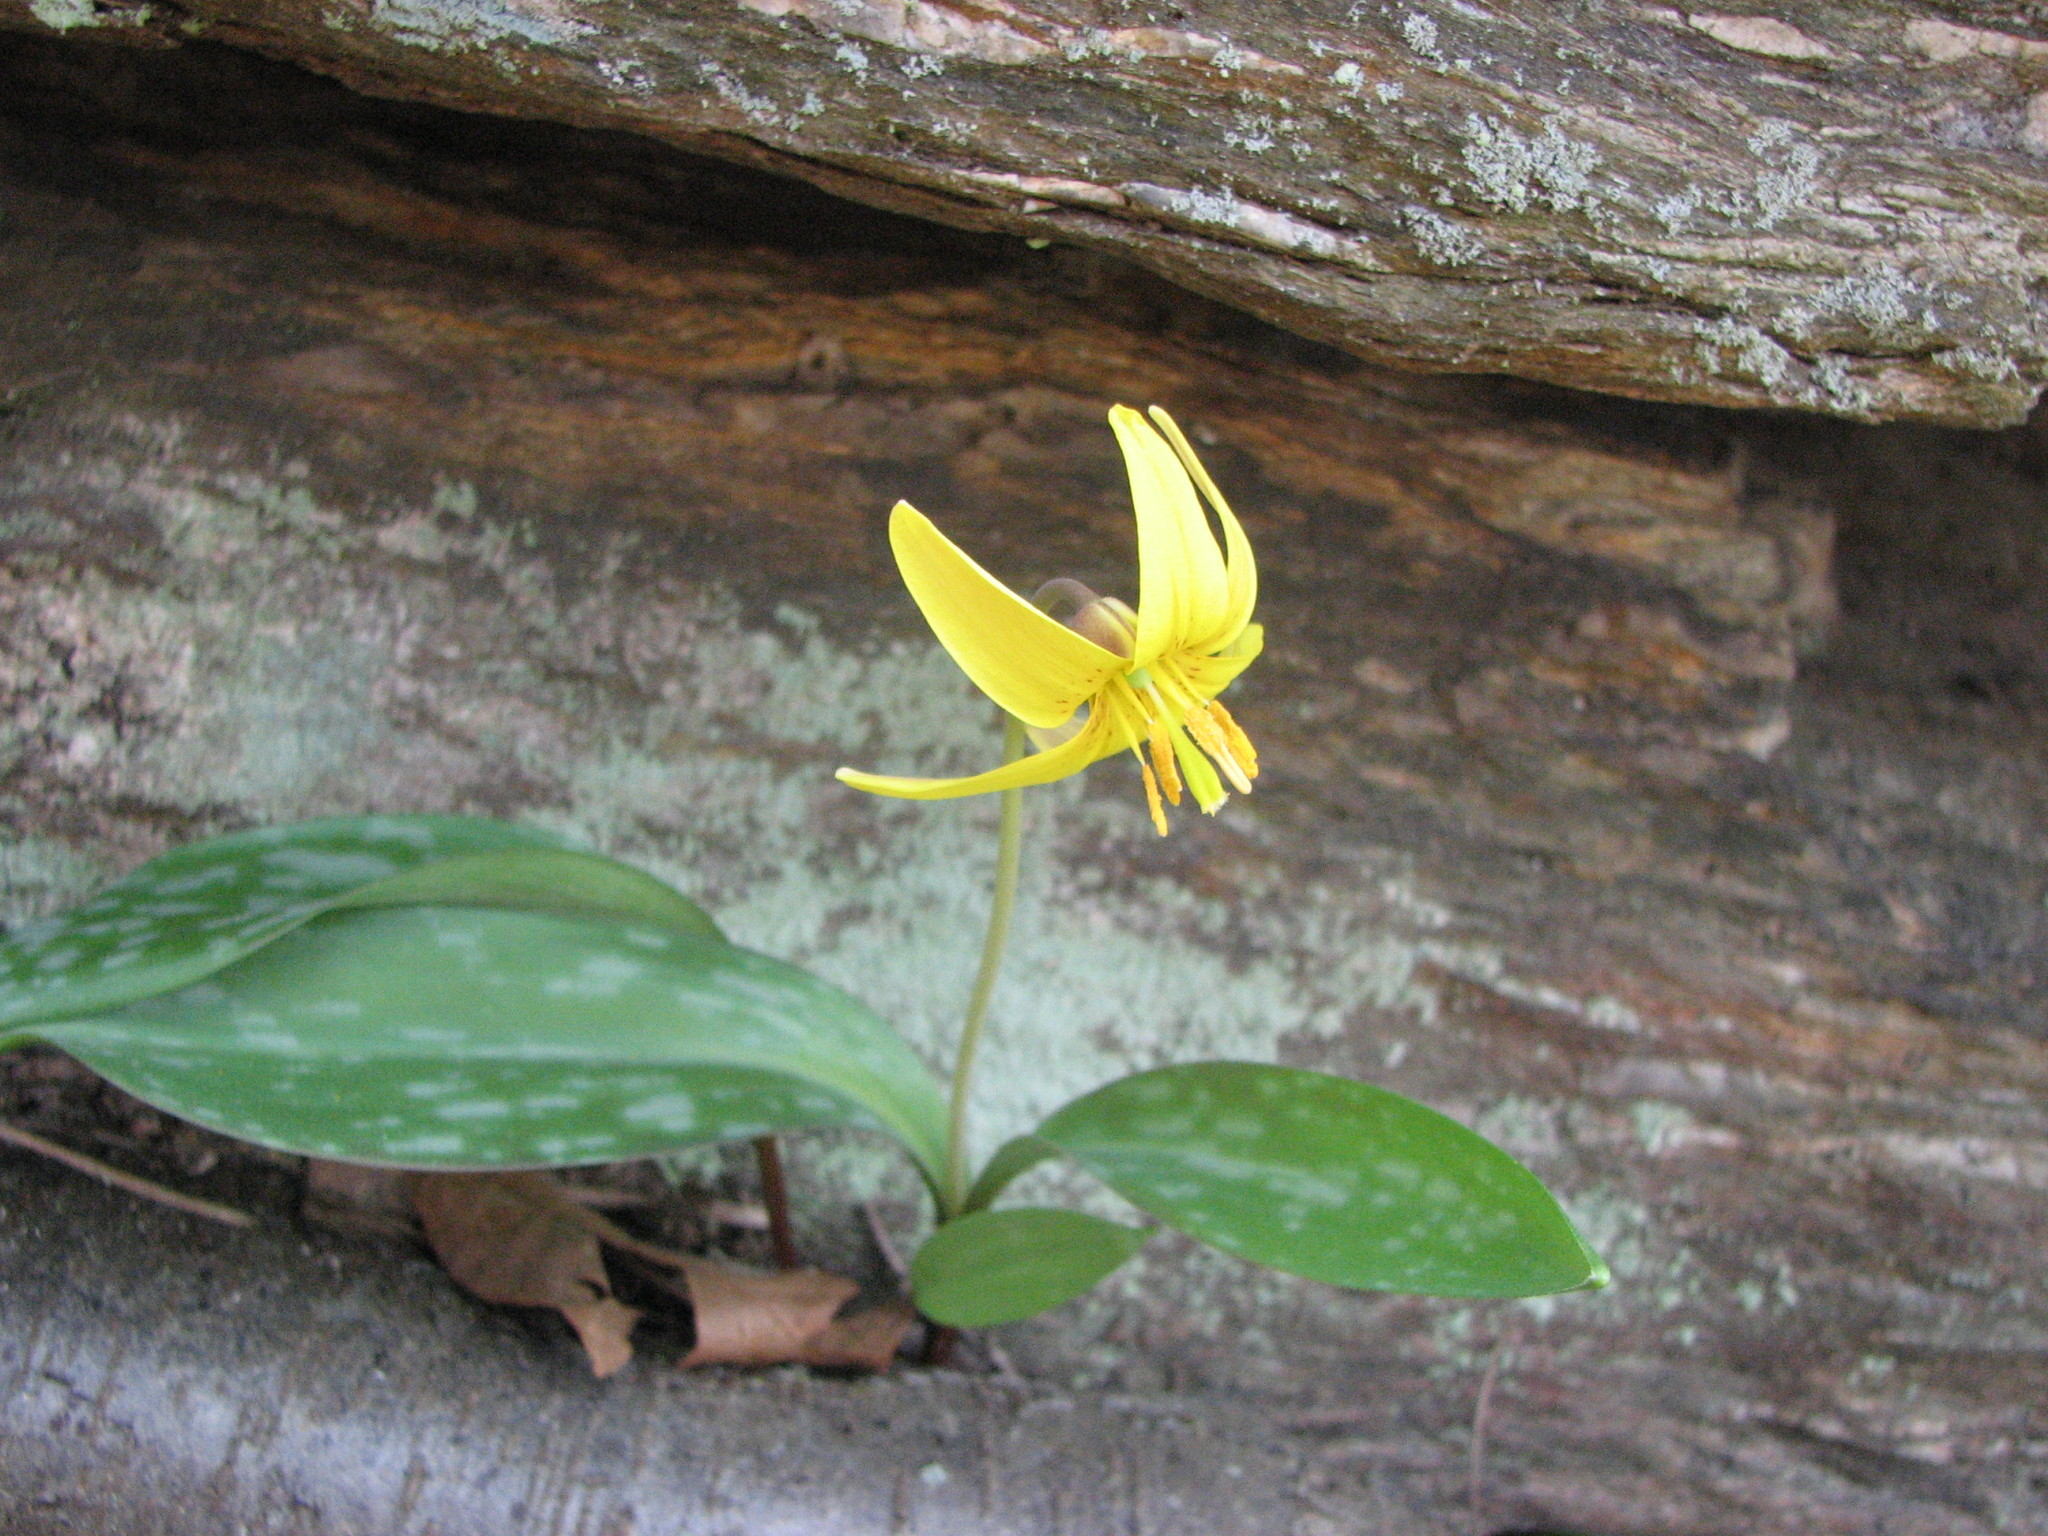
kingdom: Plantae
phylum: Tracheophyta
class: Liliopsida
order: Liliales
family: Liliaceae
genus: Erythronium
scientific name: Erythronium americanum
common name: Yellow adder's-tongue
